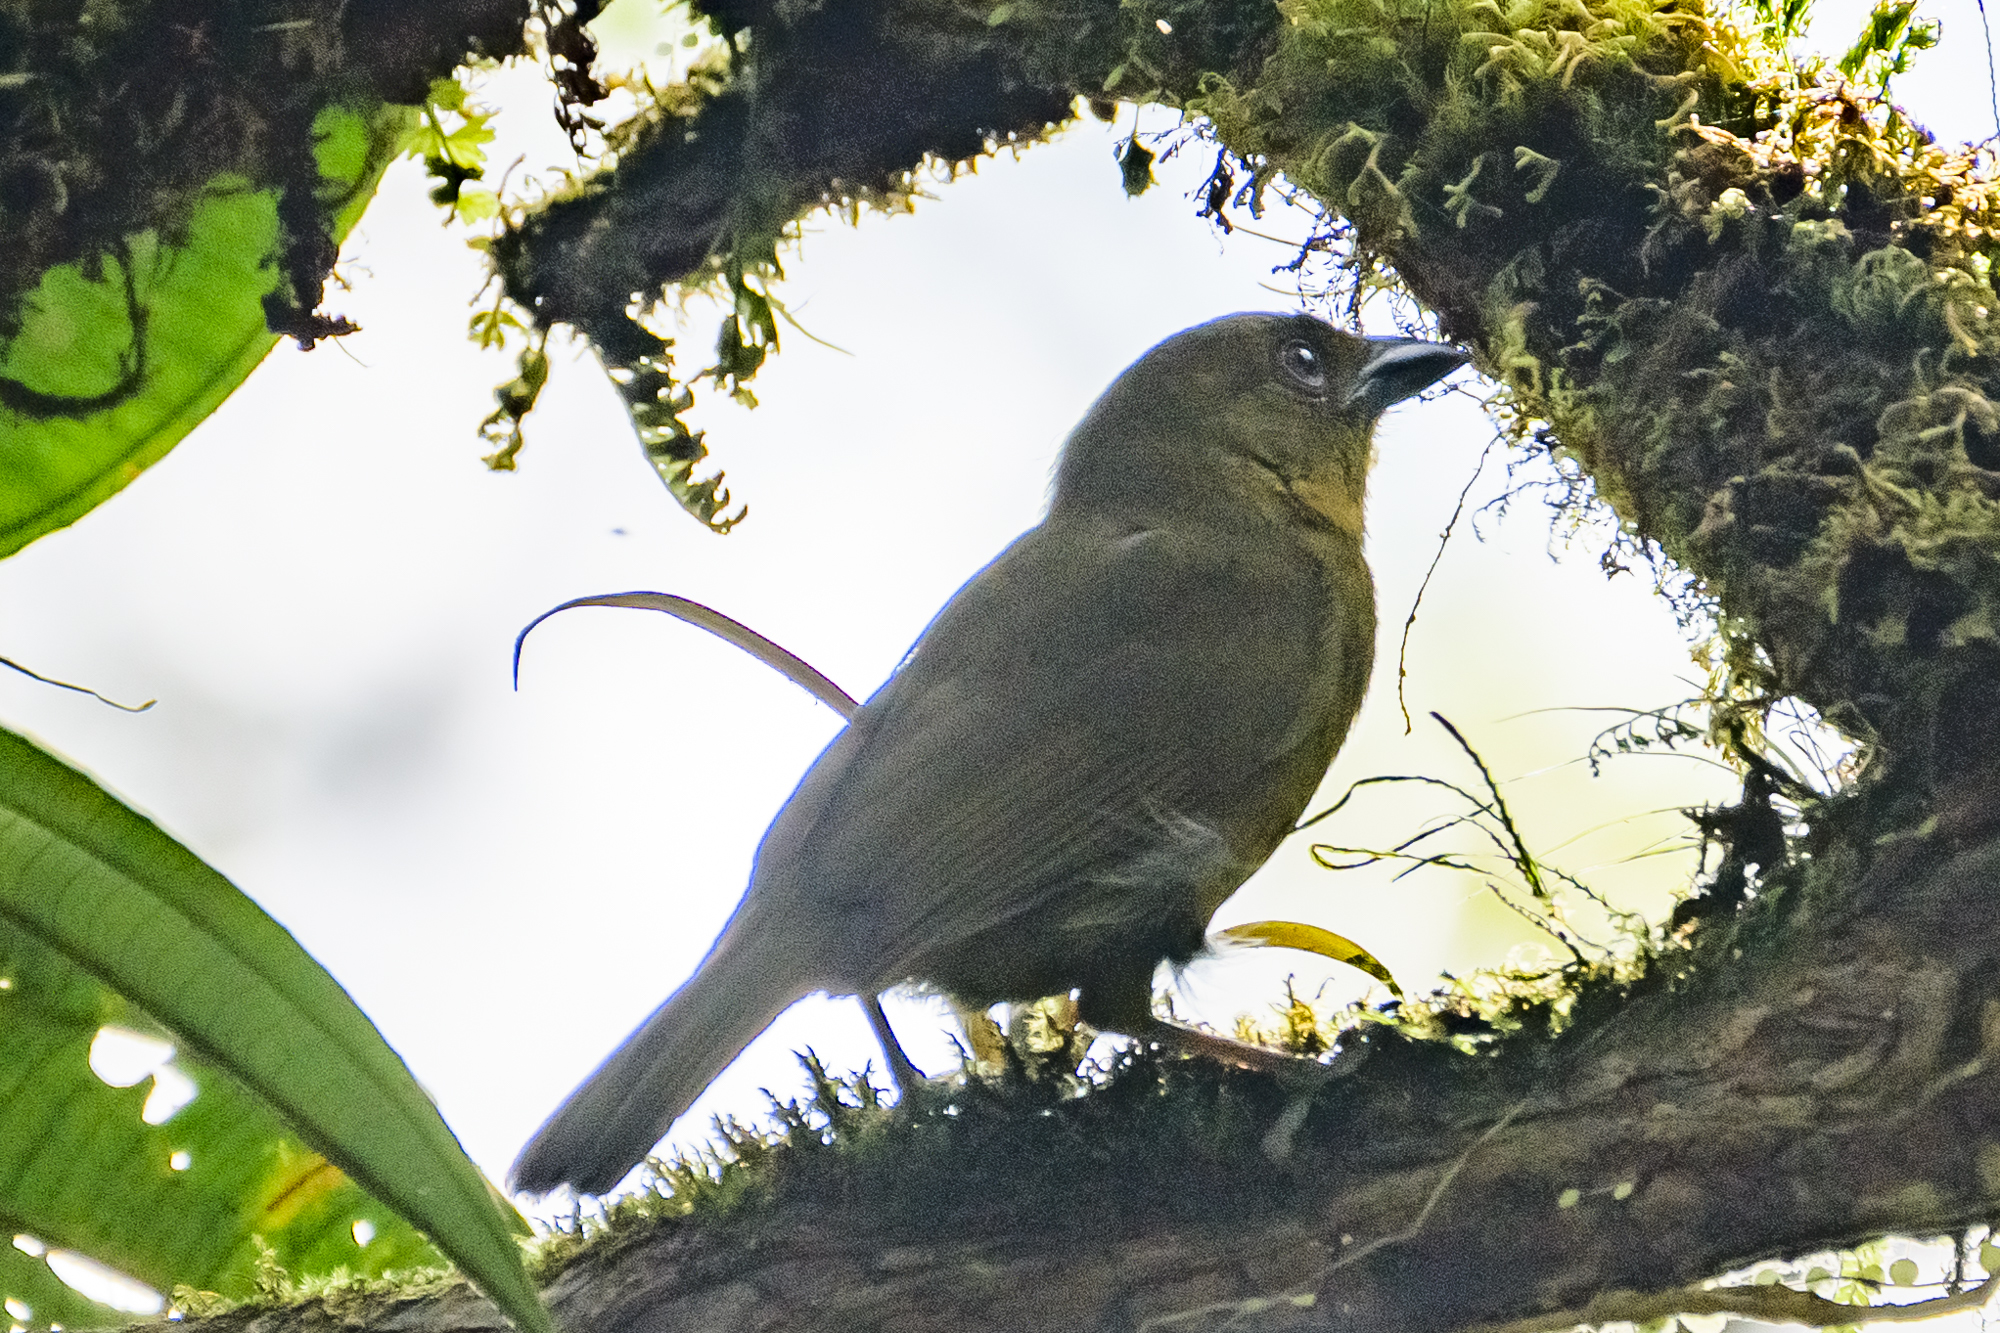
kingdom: Animalia
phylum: Chordata
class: Aves
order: Passeriformes
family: Cardinalidae
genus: Chlorothraupis
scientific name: Chlorothraupis carmioli
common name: Carmiol's tanager
